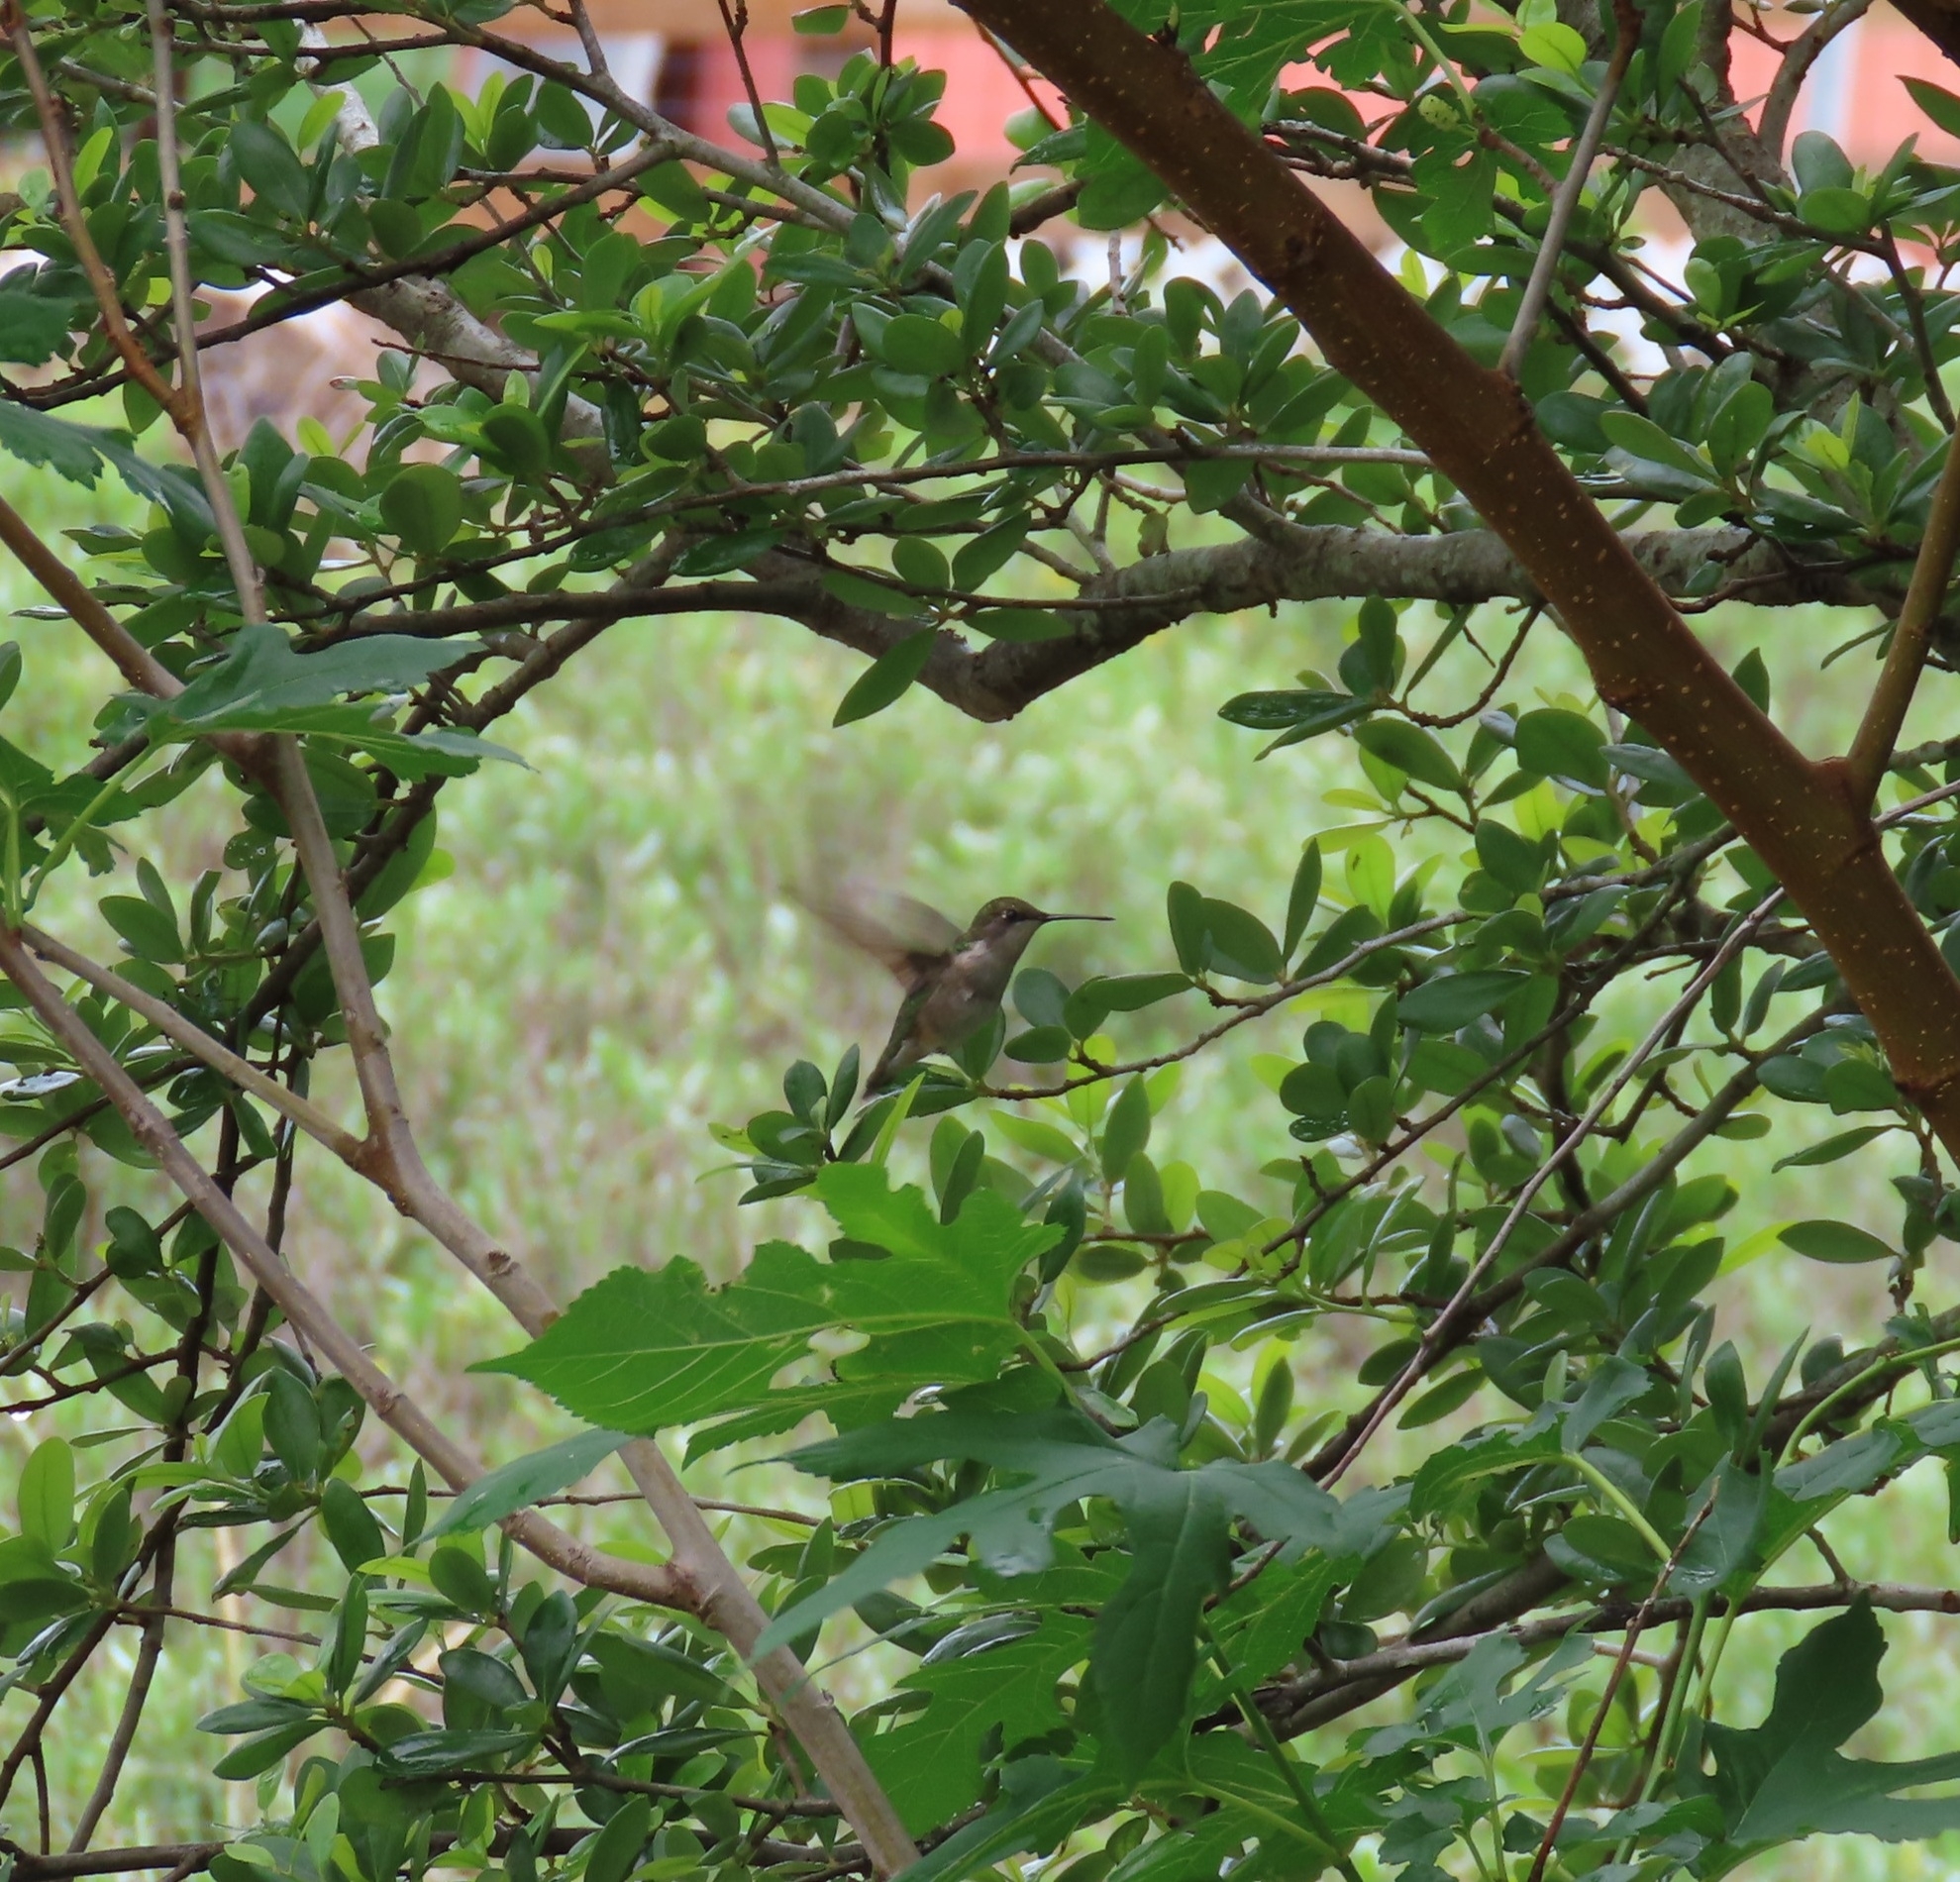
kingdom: Animalia
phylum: Chordata
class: Aves
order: Apodiformes
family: Trochilidae
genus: Archilochus
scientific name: Archilochus colubris
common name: Ruby-throated hummingbird
